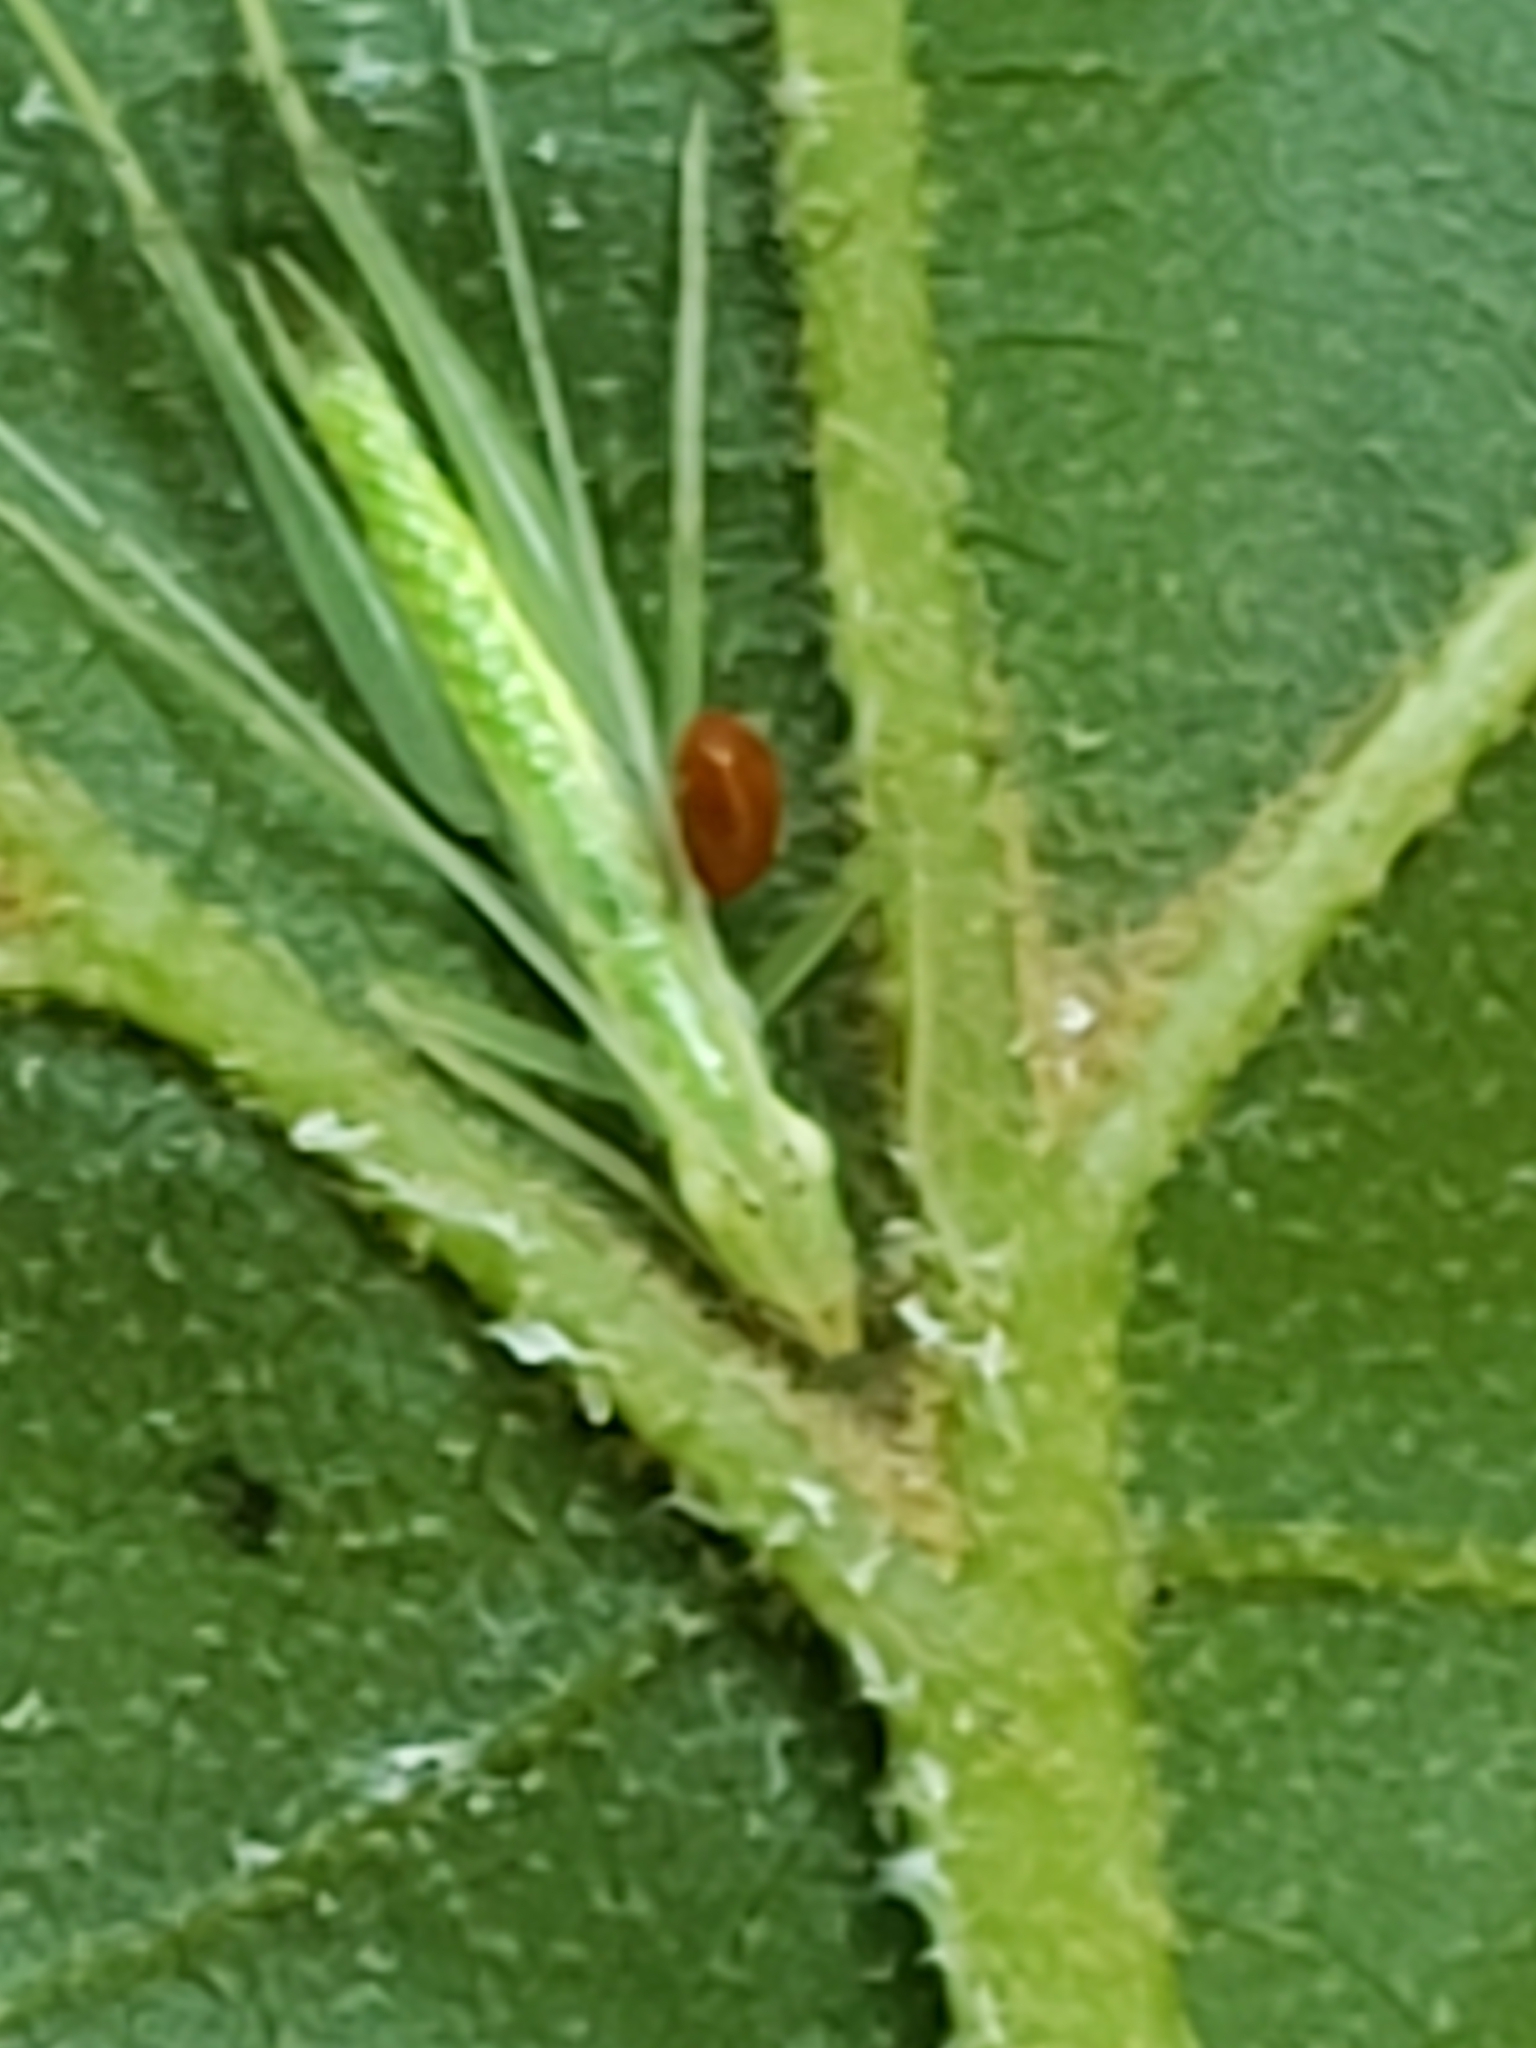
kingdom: Animalia
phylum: Arthropoda
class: Insecta
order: Orthoptera
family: Gryllidae
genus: Oecanthus
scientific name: Oecanthus niveus
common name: Narrow-winged tree cricket
